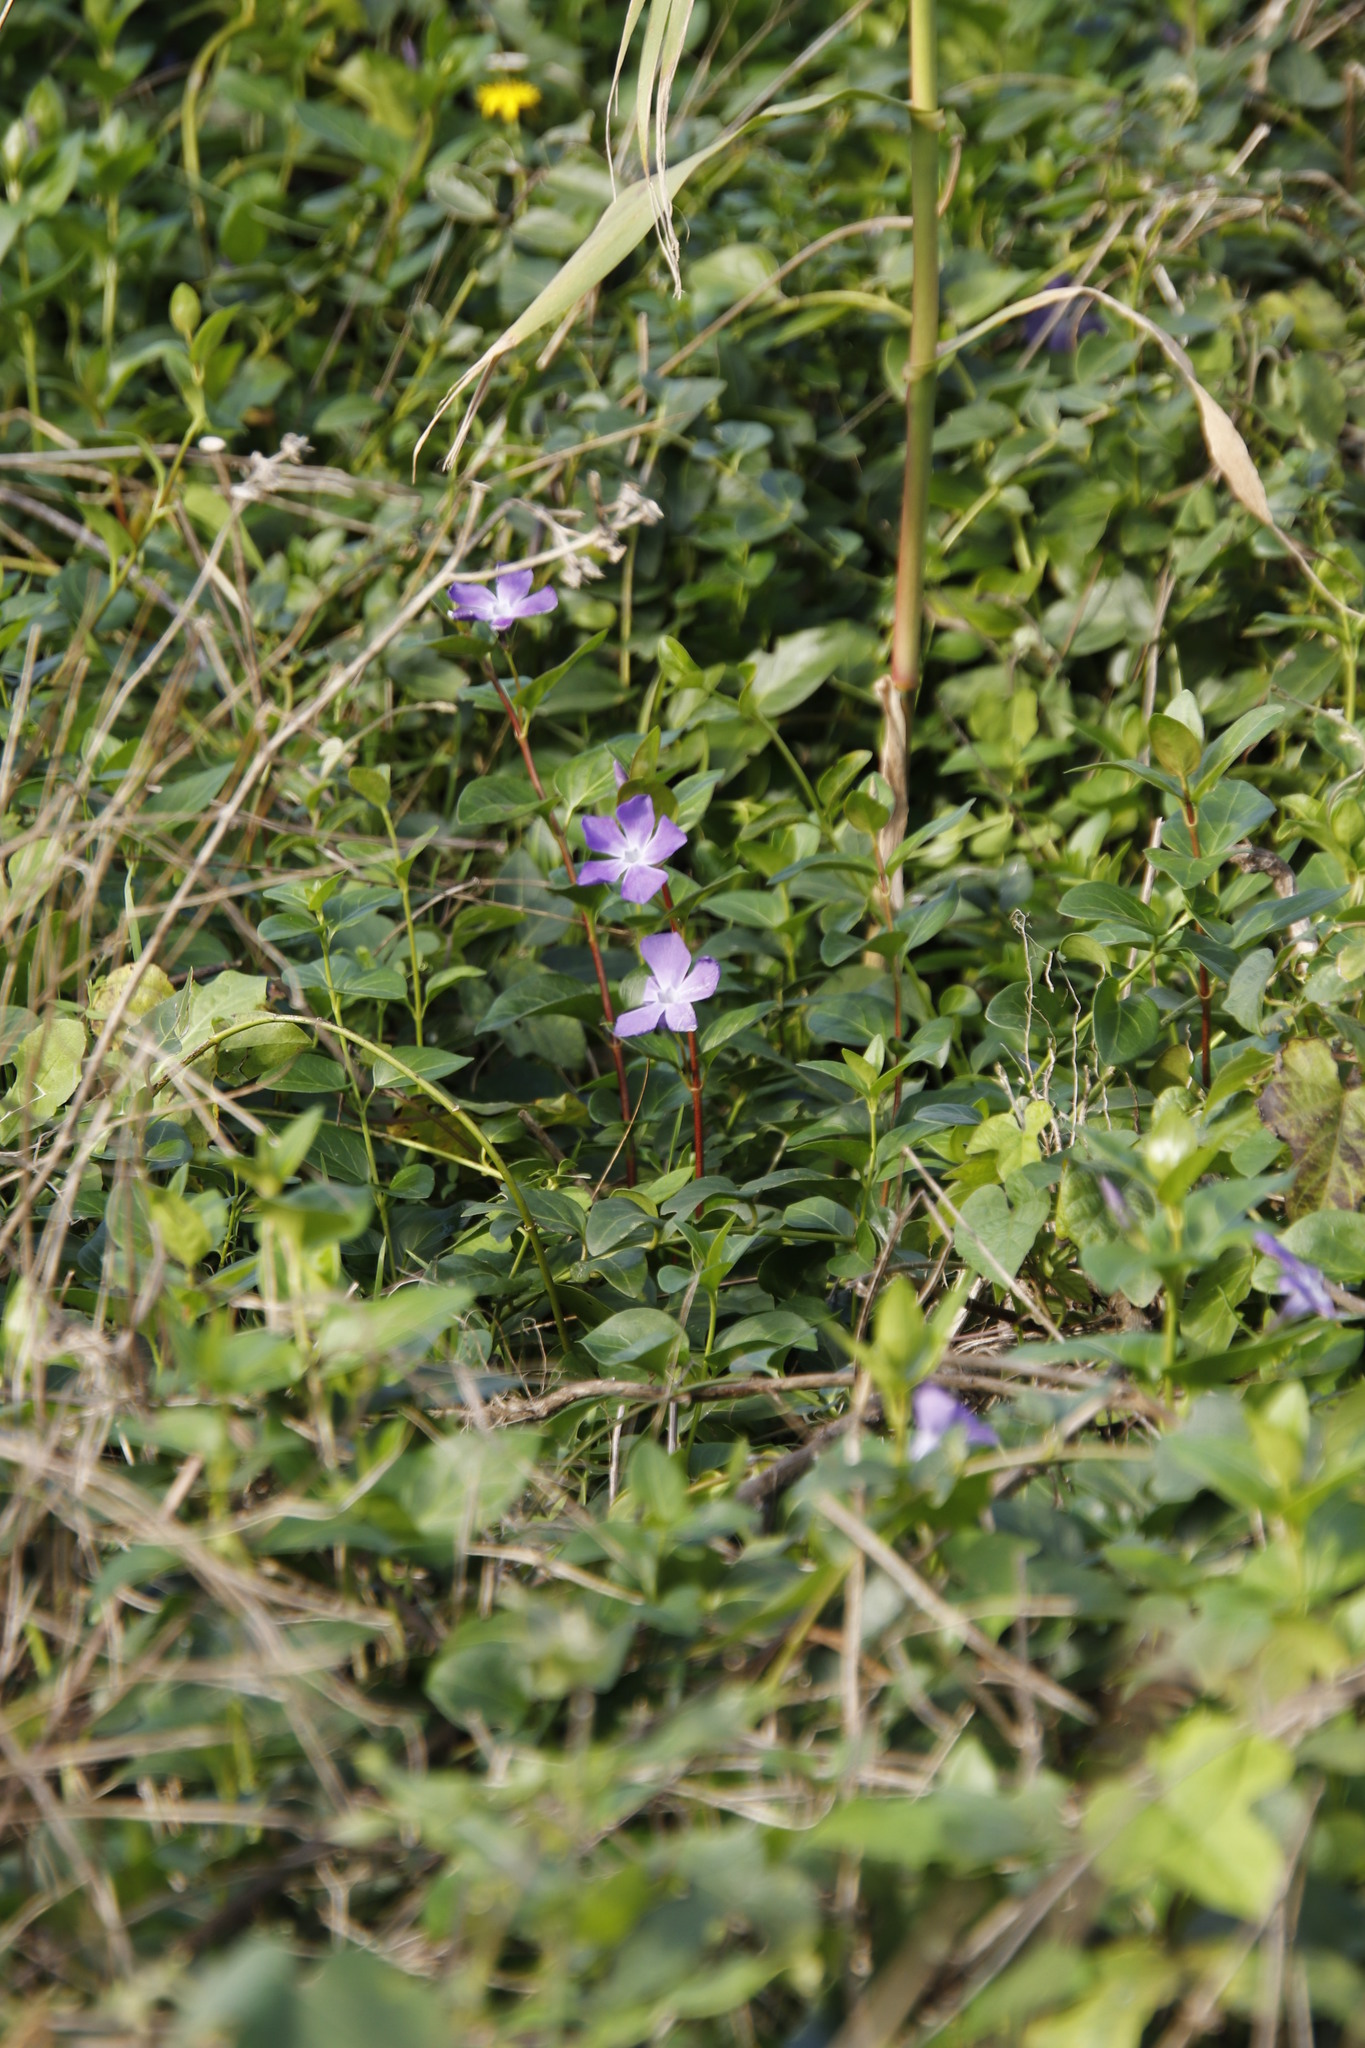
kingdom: Plantae
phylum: Tracheophyta
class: Magnoliopsida
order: Gentianales
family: Apocynaceae
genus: Vinca
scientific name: Vinca major
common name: Greater periwinkle
